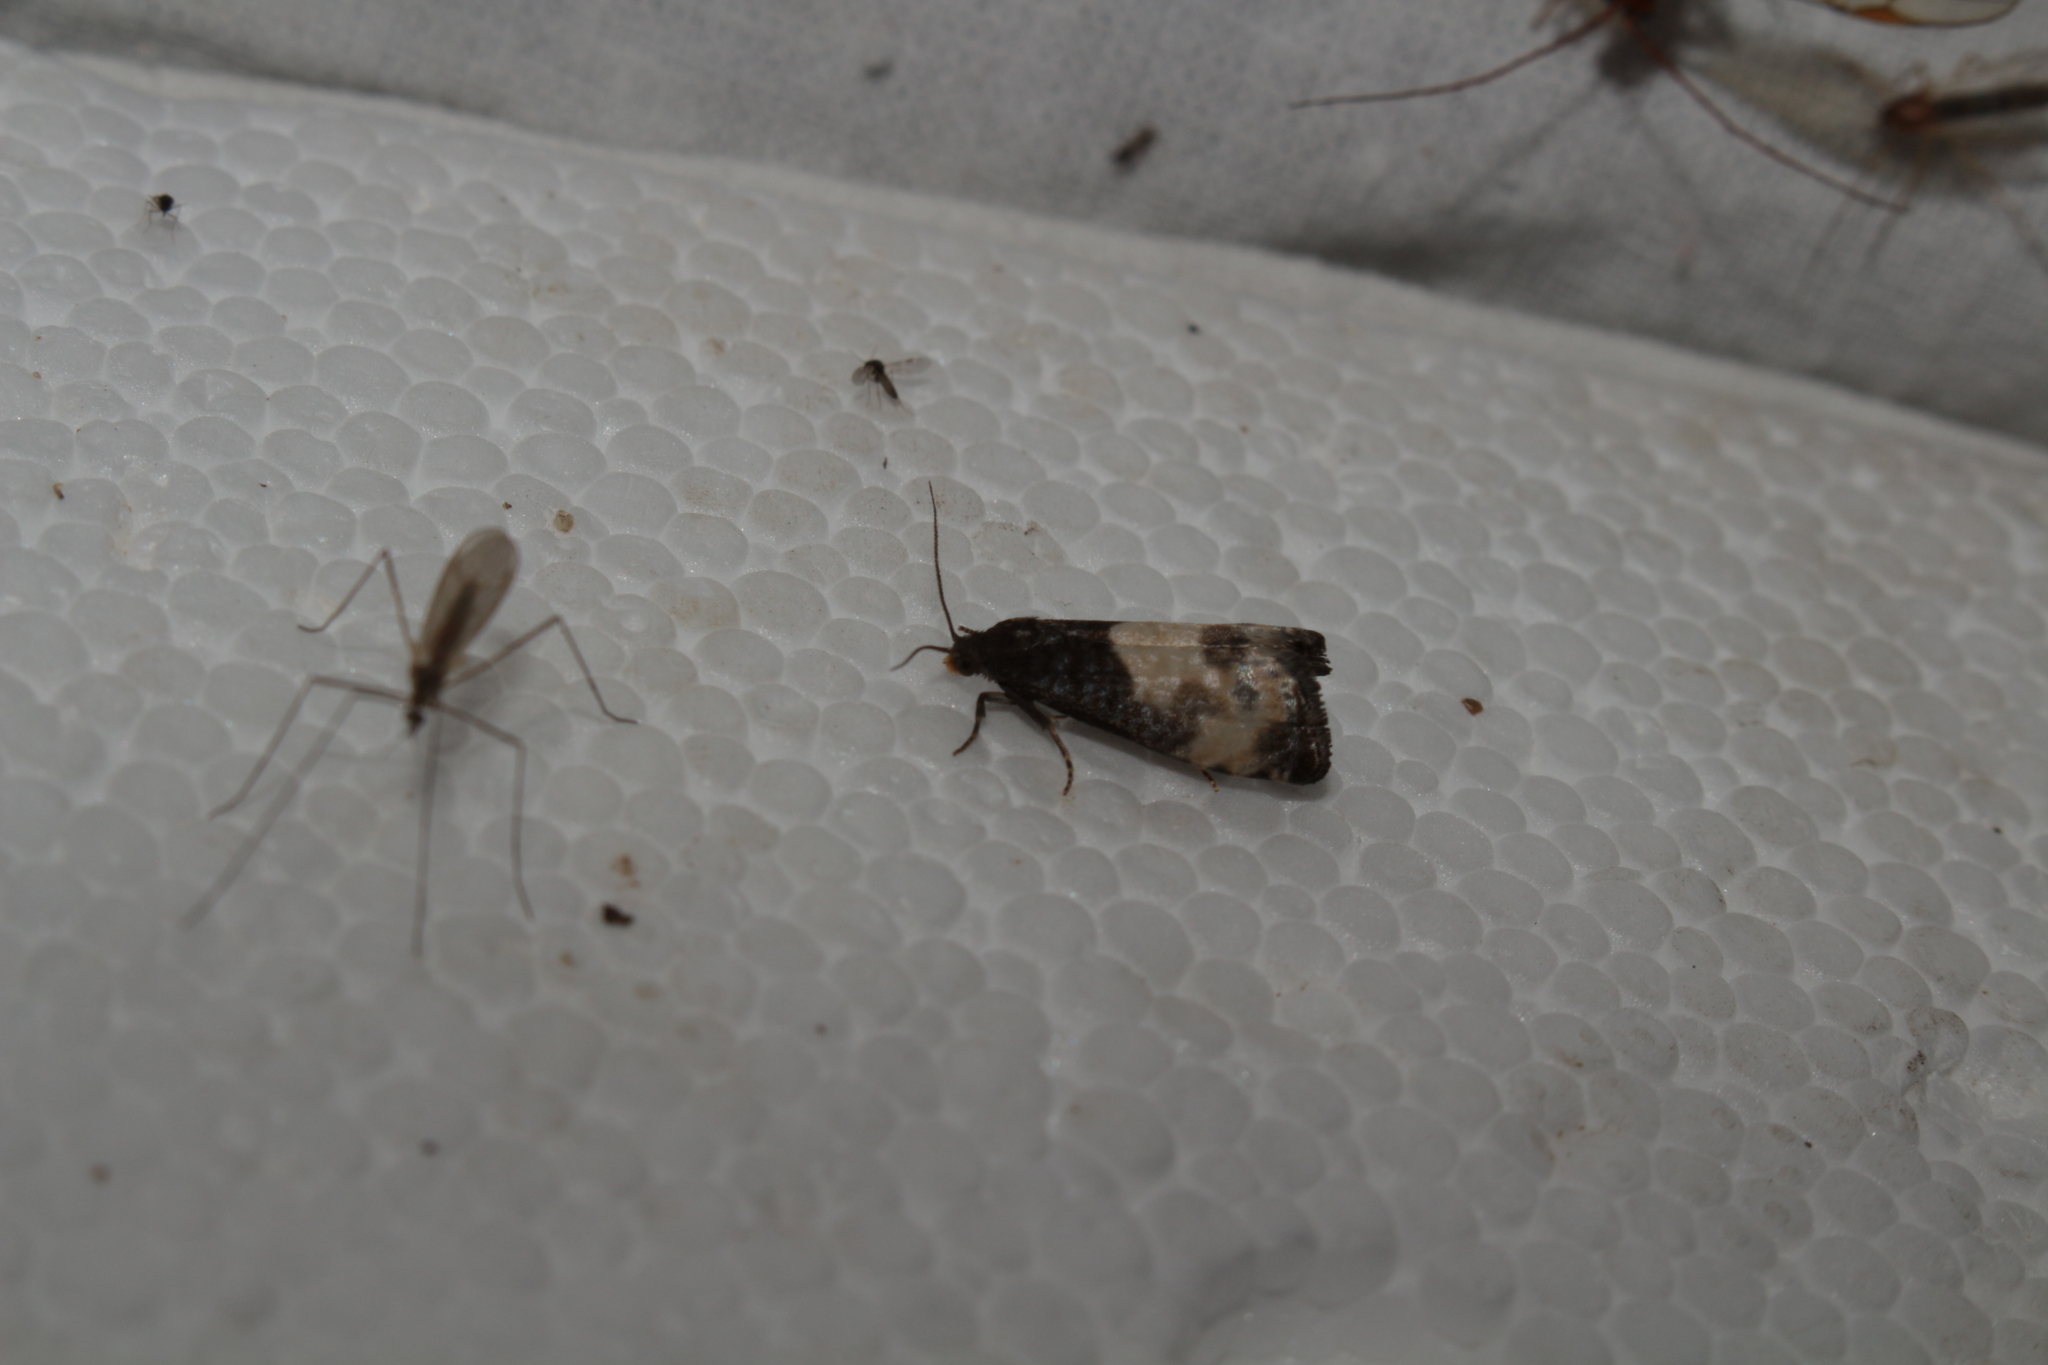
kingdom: Animalia
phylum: Arthropoda
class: Insecta
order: Lepidoptera
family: Tortricidae
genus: Notocelia
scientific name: Notocelia cynosbatella
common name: Yellow-faced bell moth
